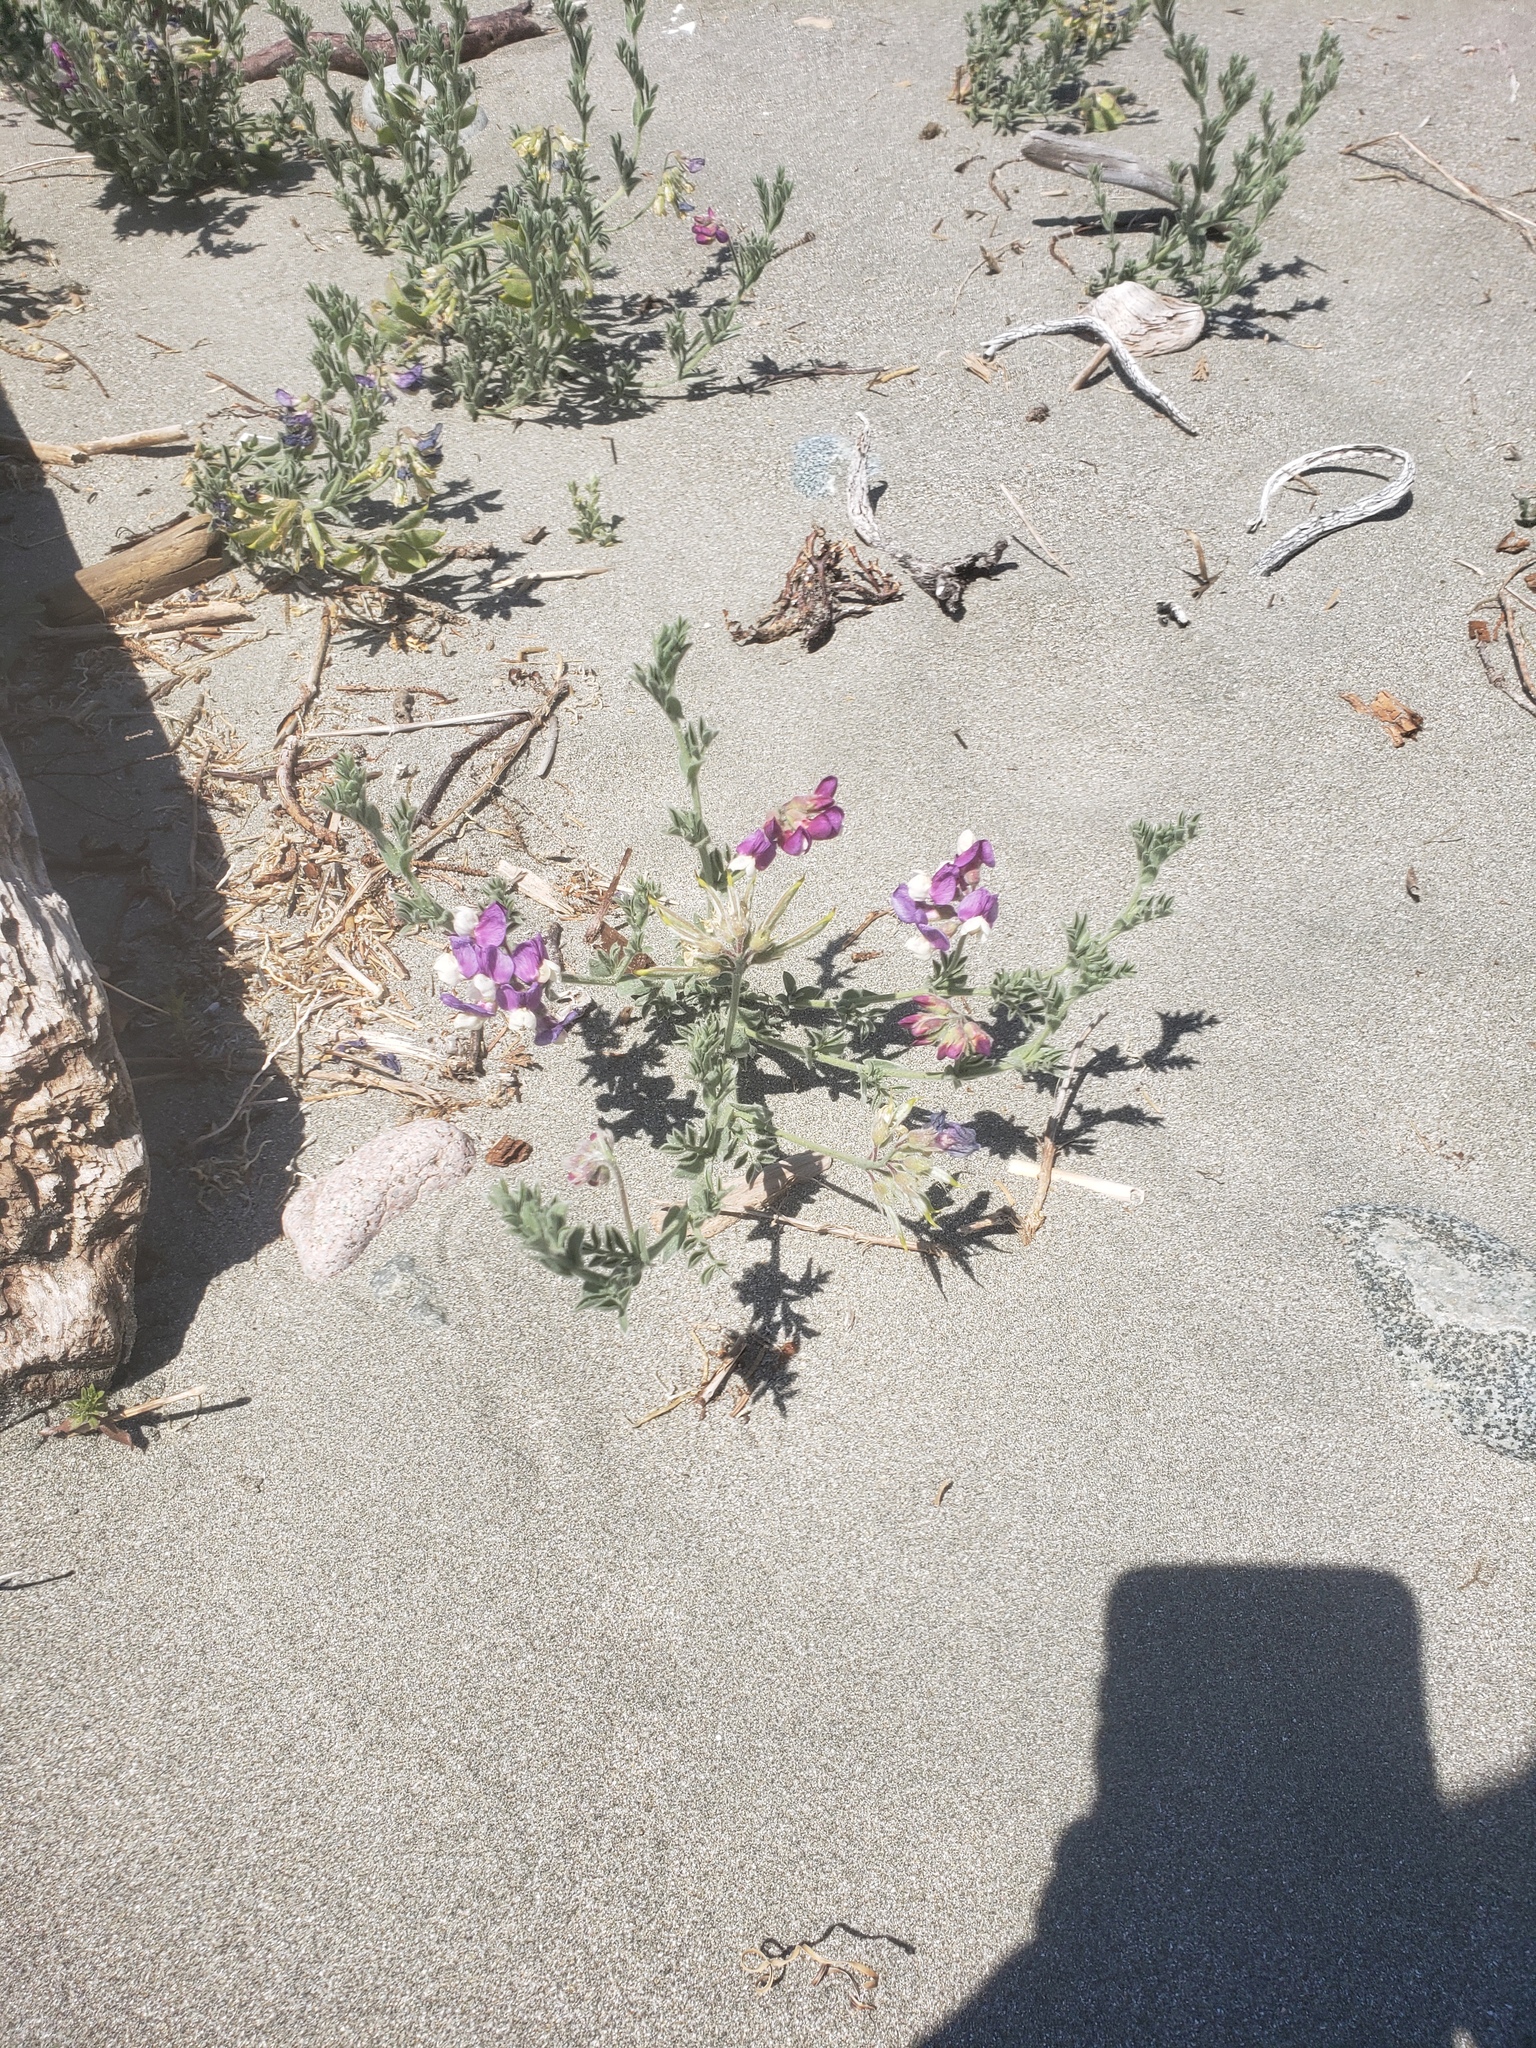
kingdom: Plantae
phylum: Tracheophyta
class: Magnoliopsida
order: Fabales
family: Fabaceae
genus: Lathyrus
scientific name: Lathyrus littoralis
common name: Dune sweet pea
